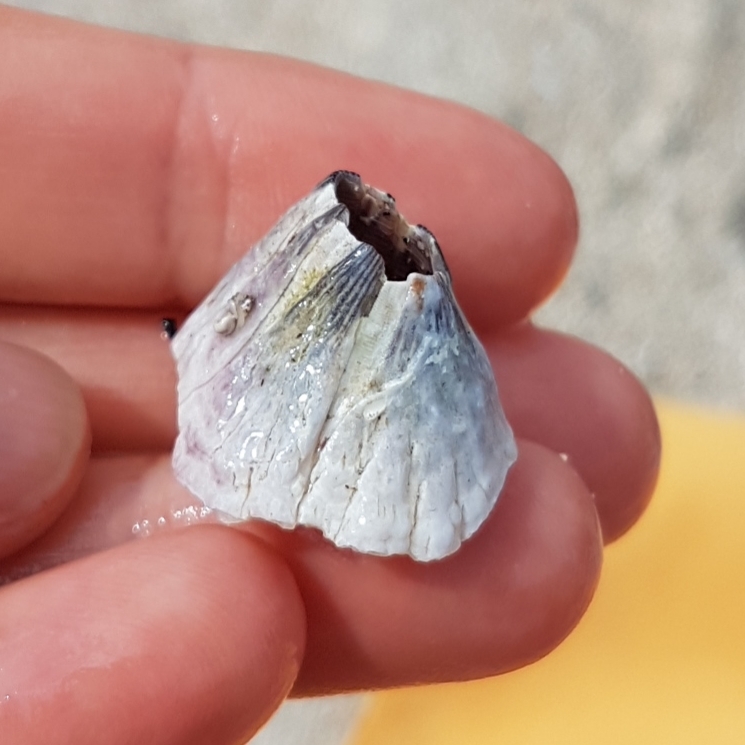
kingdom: Animalia
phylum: Arthropoda
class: Maxillopoda
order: Sessilia
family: Balanidae
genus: Perforatus
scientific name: Perforatus perforatus
